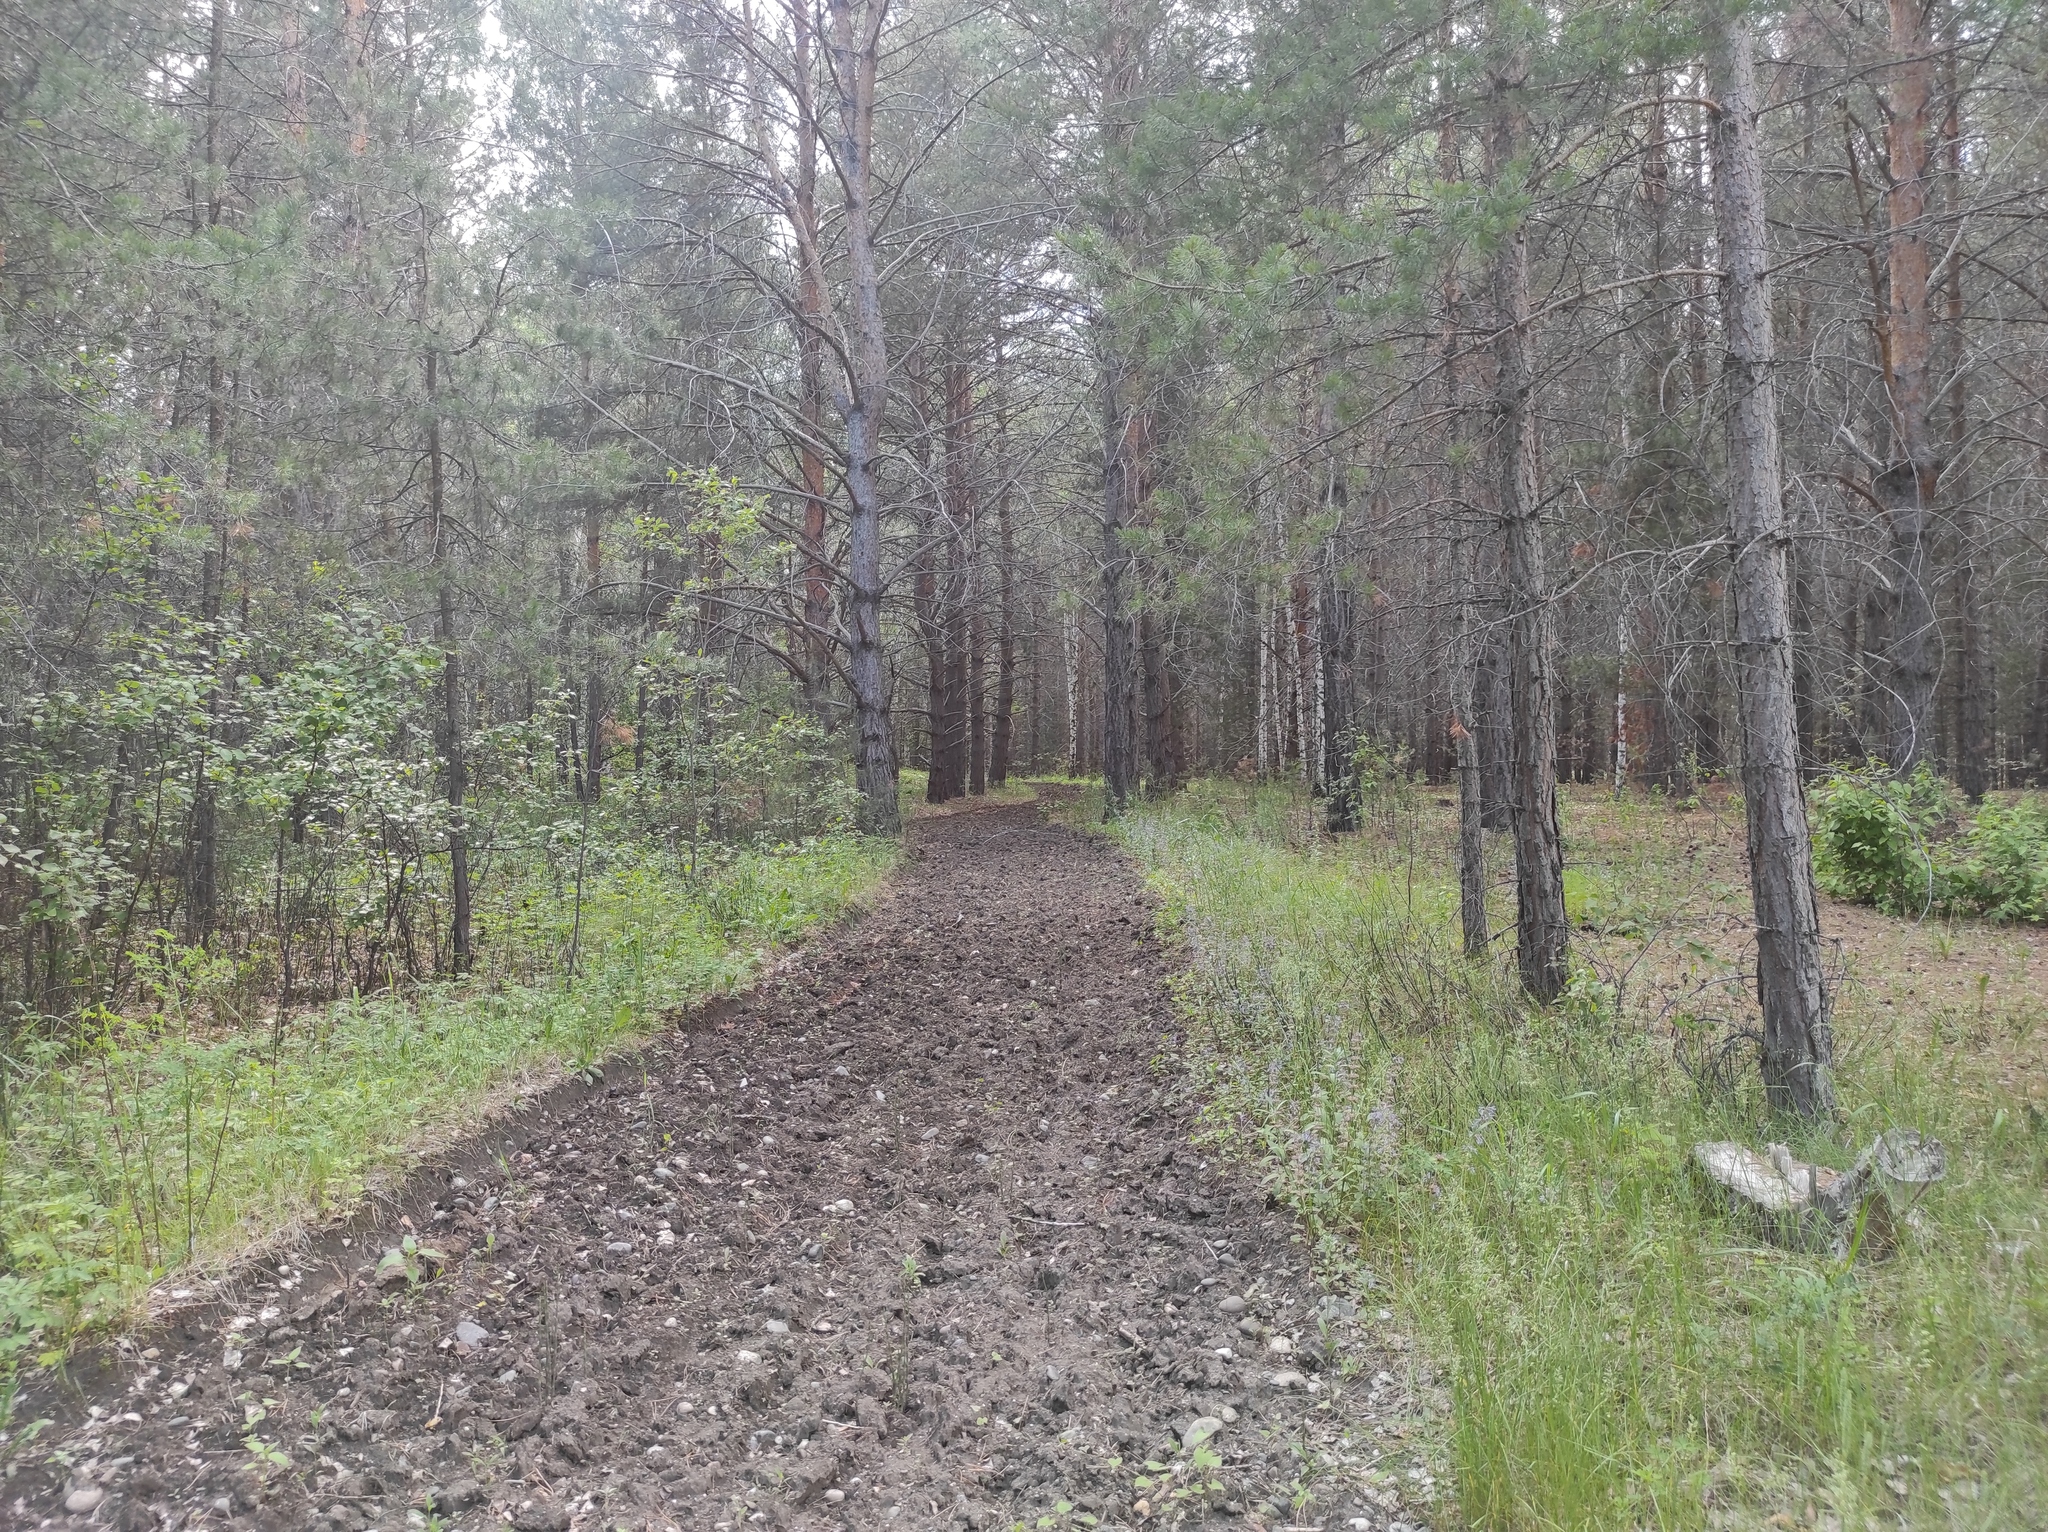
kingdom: Plantae
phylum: Tracheophyta
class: Pinopsida
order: Pinales
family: Pinaceae
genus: Pinus
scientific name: Pinus sylvestris
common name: Scots pine
